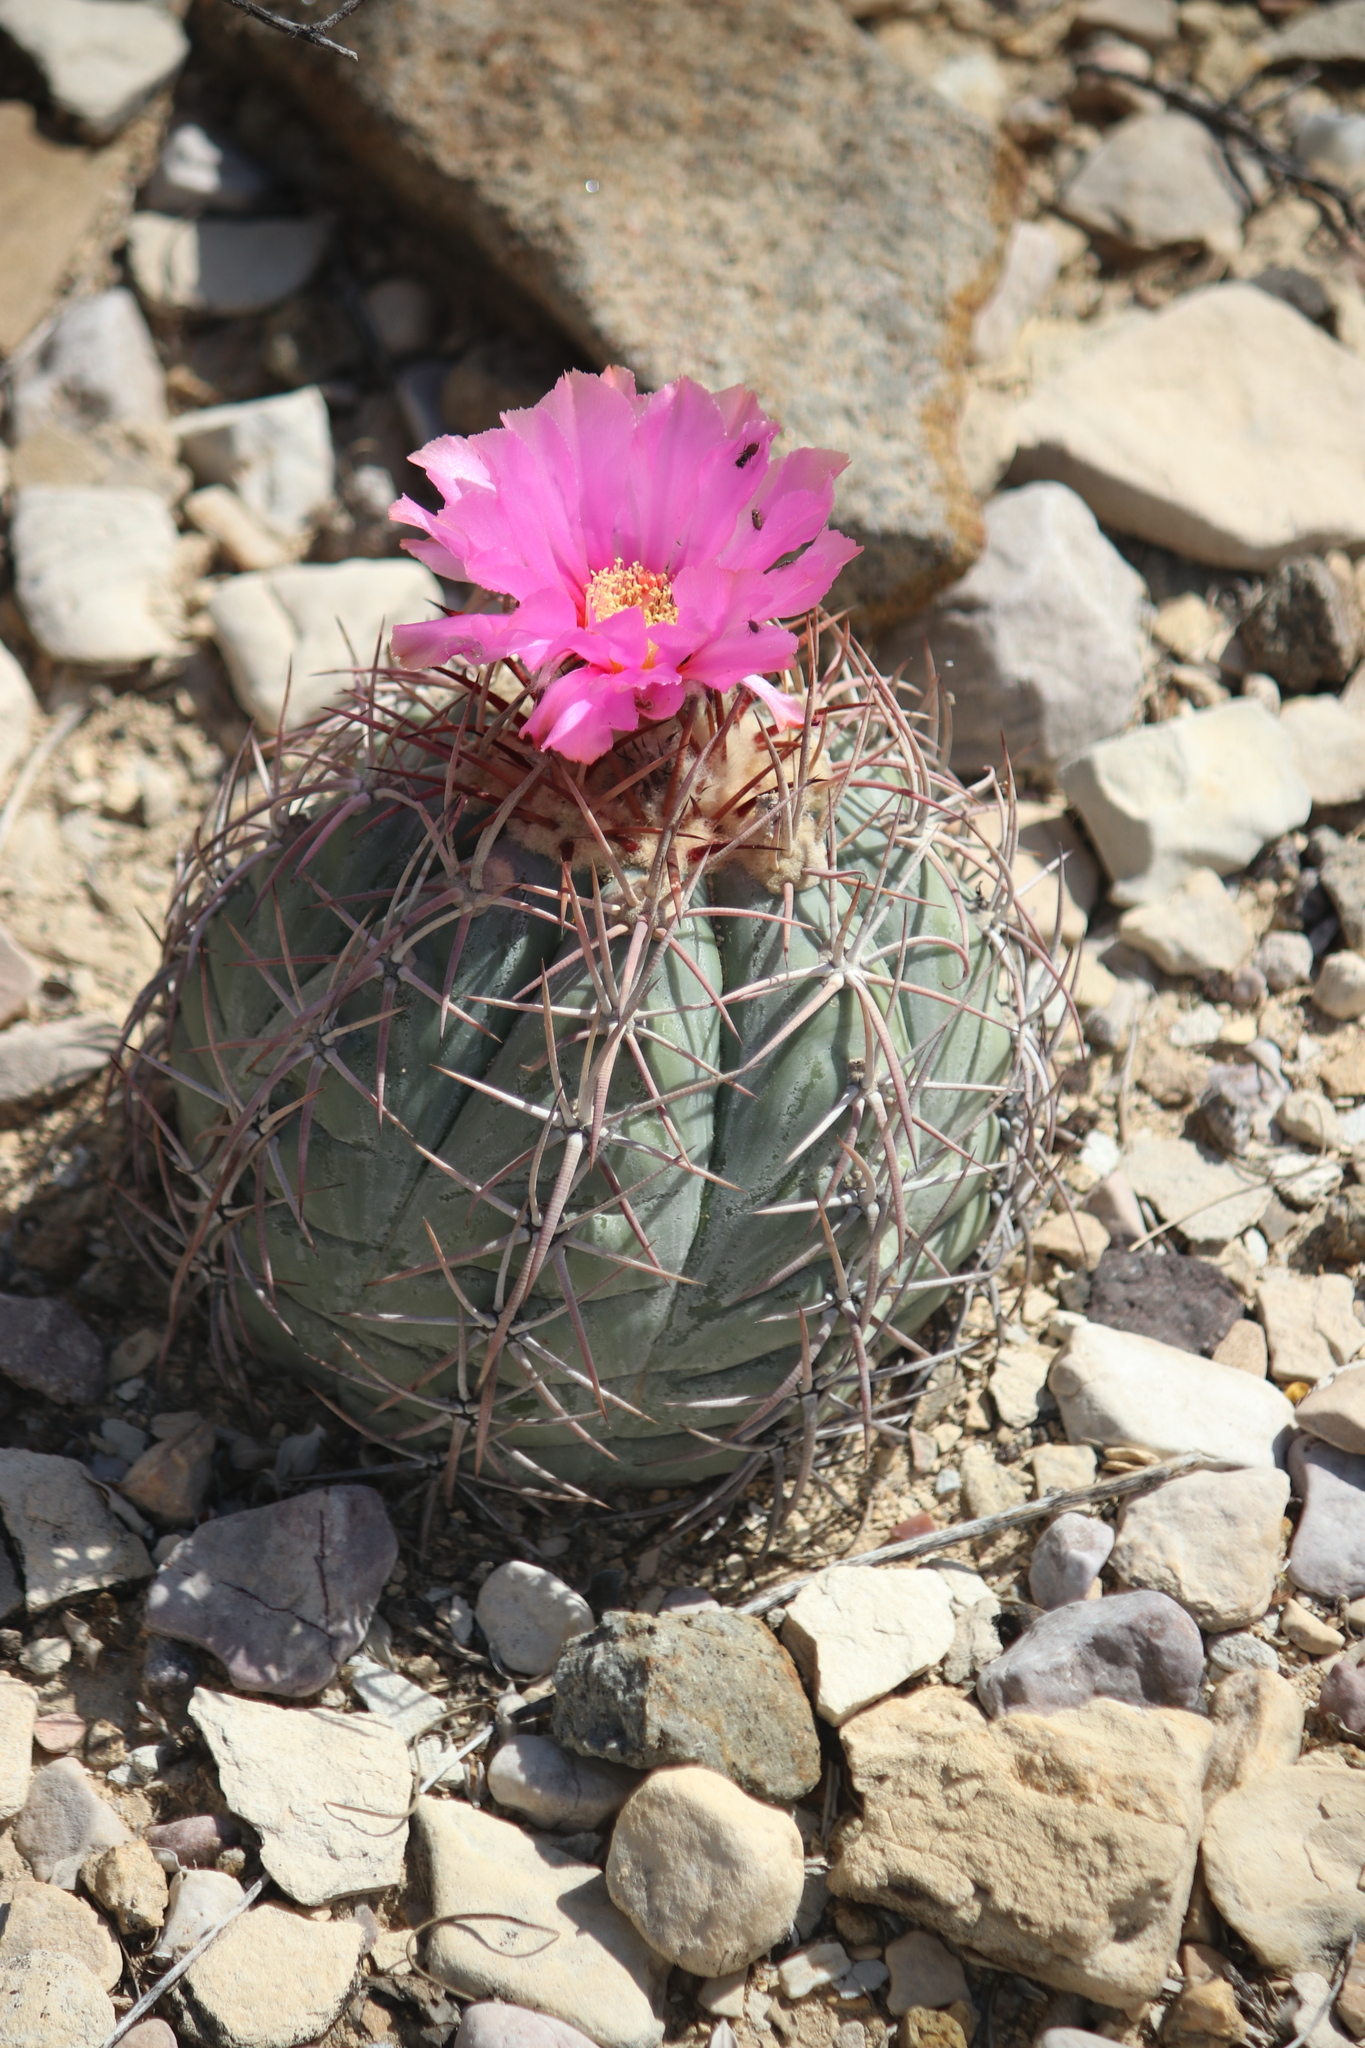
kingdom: Plantae
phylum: Tracheophyta
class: Magnoliopsida
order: Caryophyllales
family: Cactaceae
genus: Echinocactus
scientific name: Echinocactus horizonthalonius
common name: Devilshead
